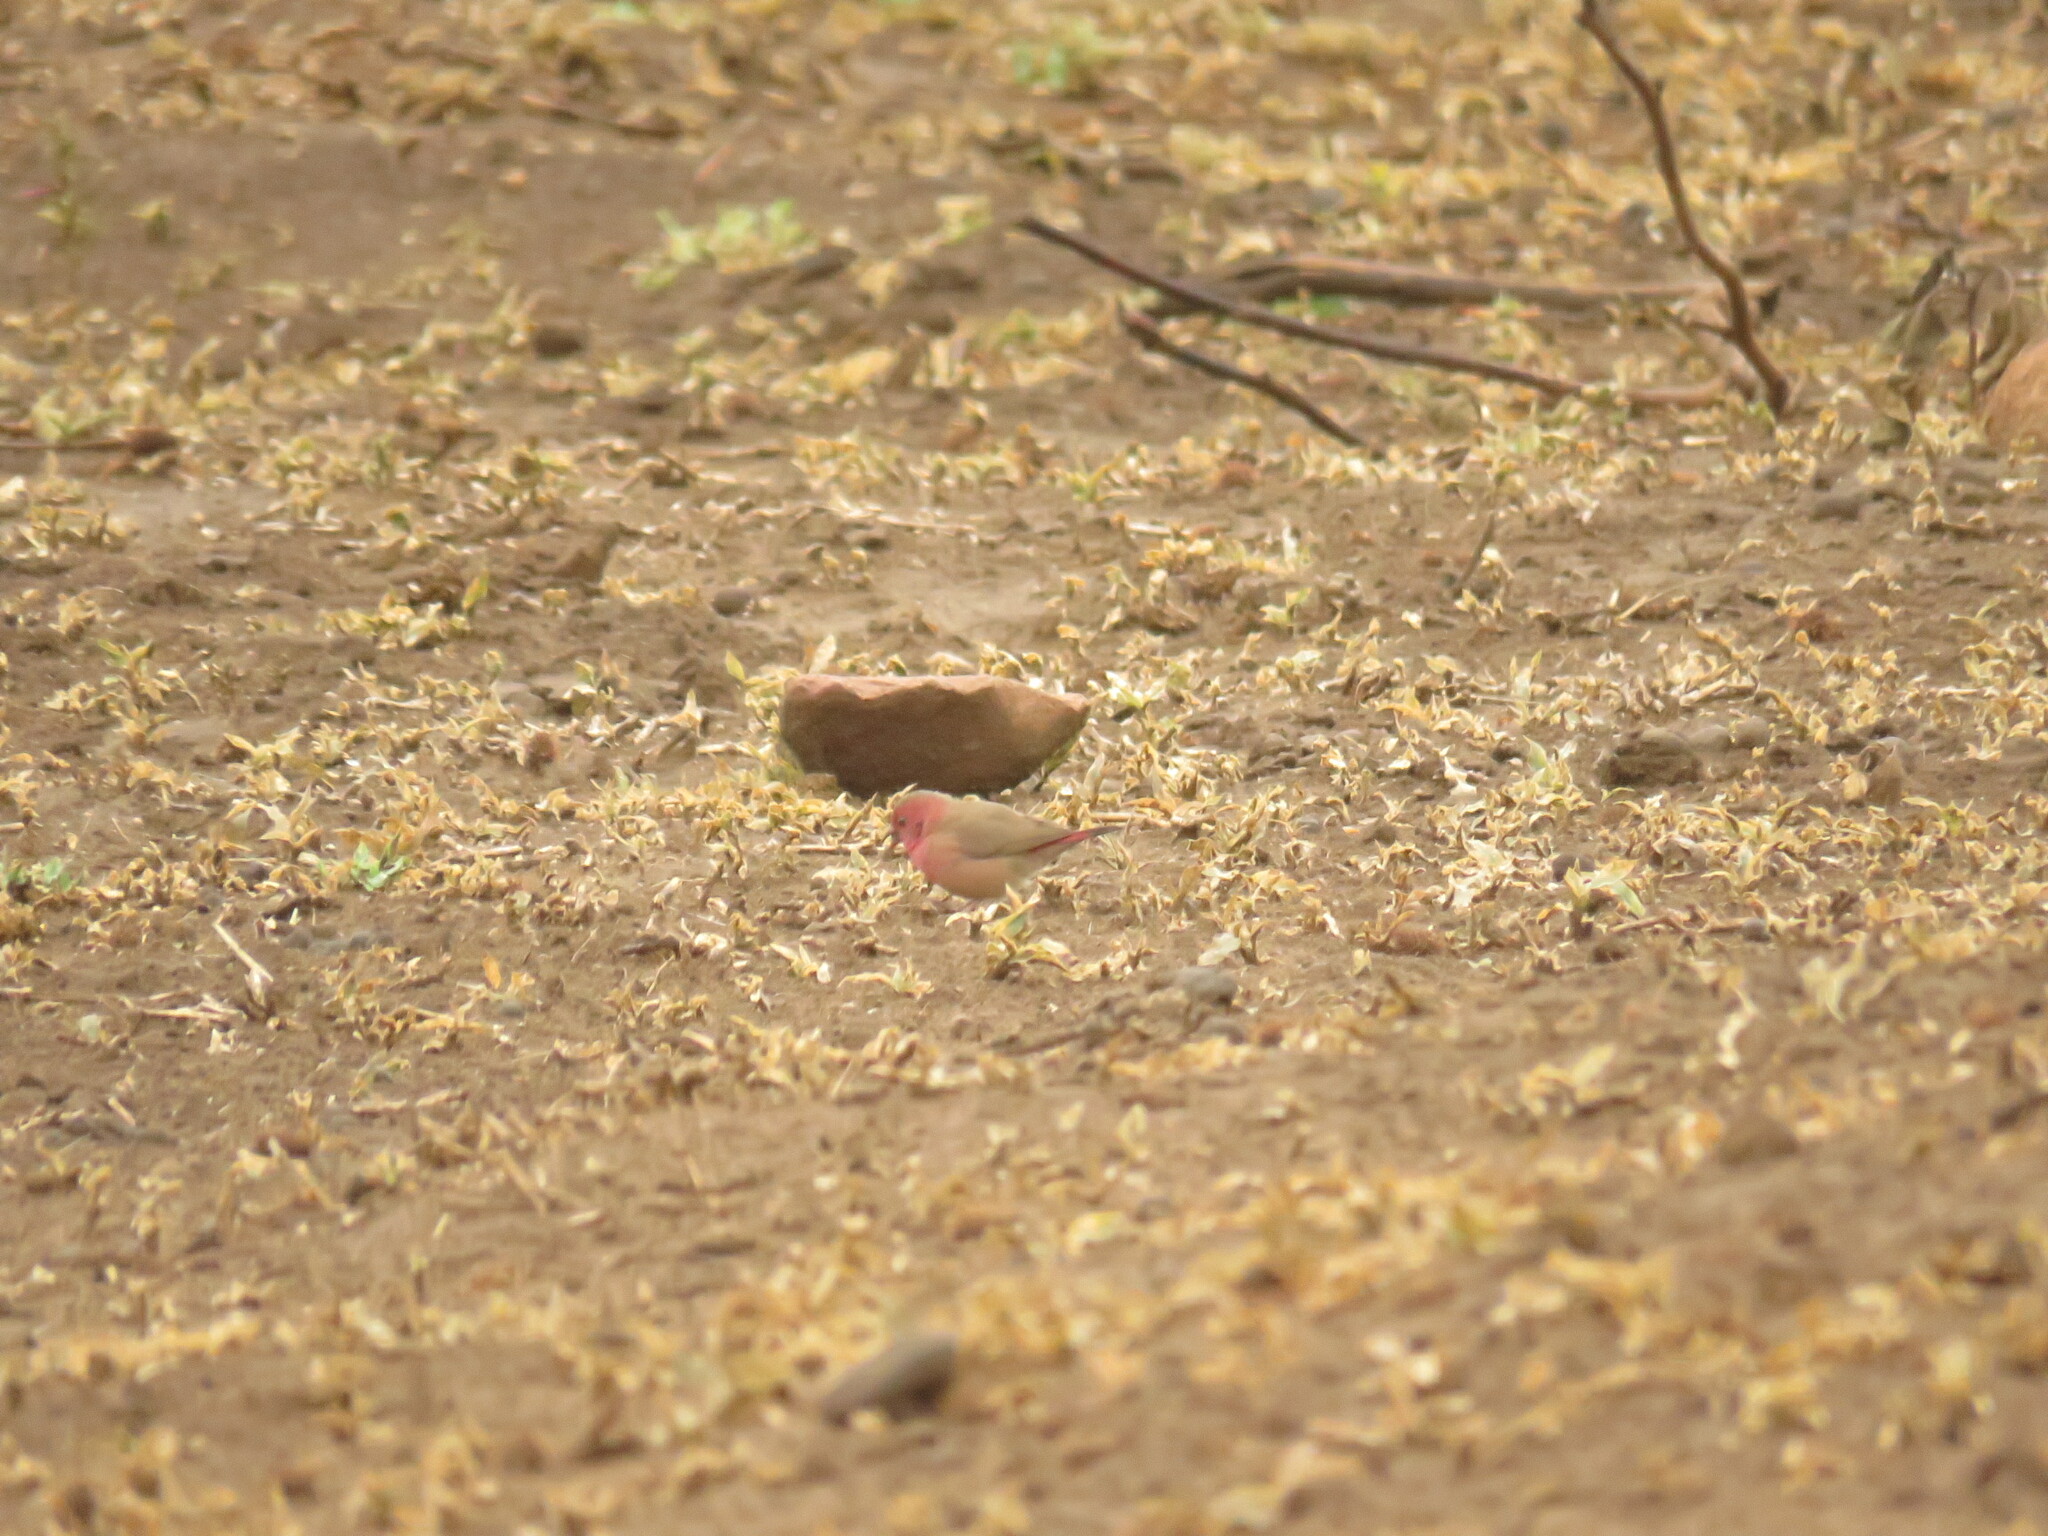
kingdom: Animalia
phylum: Chordata
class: Aves
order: Passeriformes
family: Estrildidae
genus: Lagonosticta
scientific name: Lagonosticta senegala
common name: Red-billed firefinch
